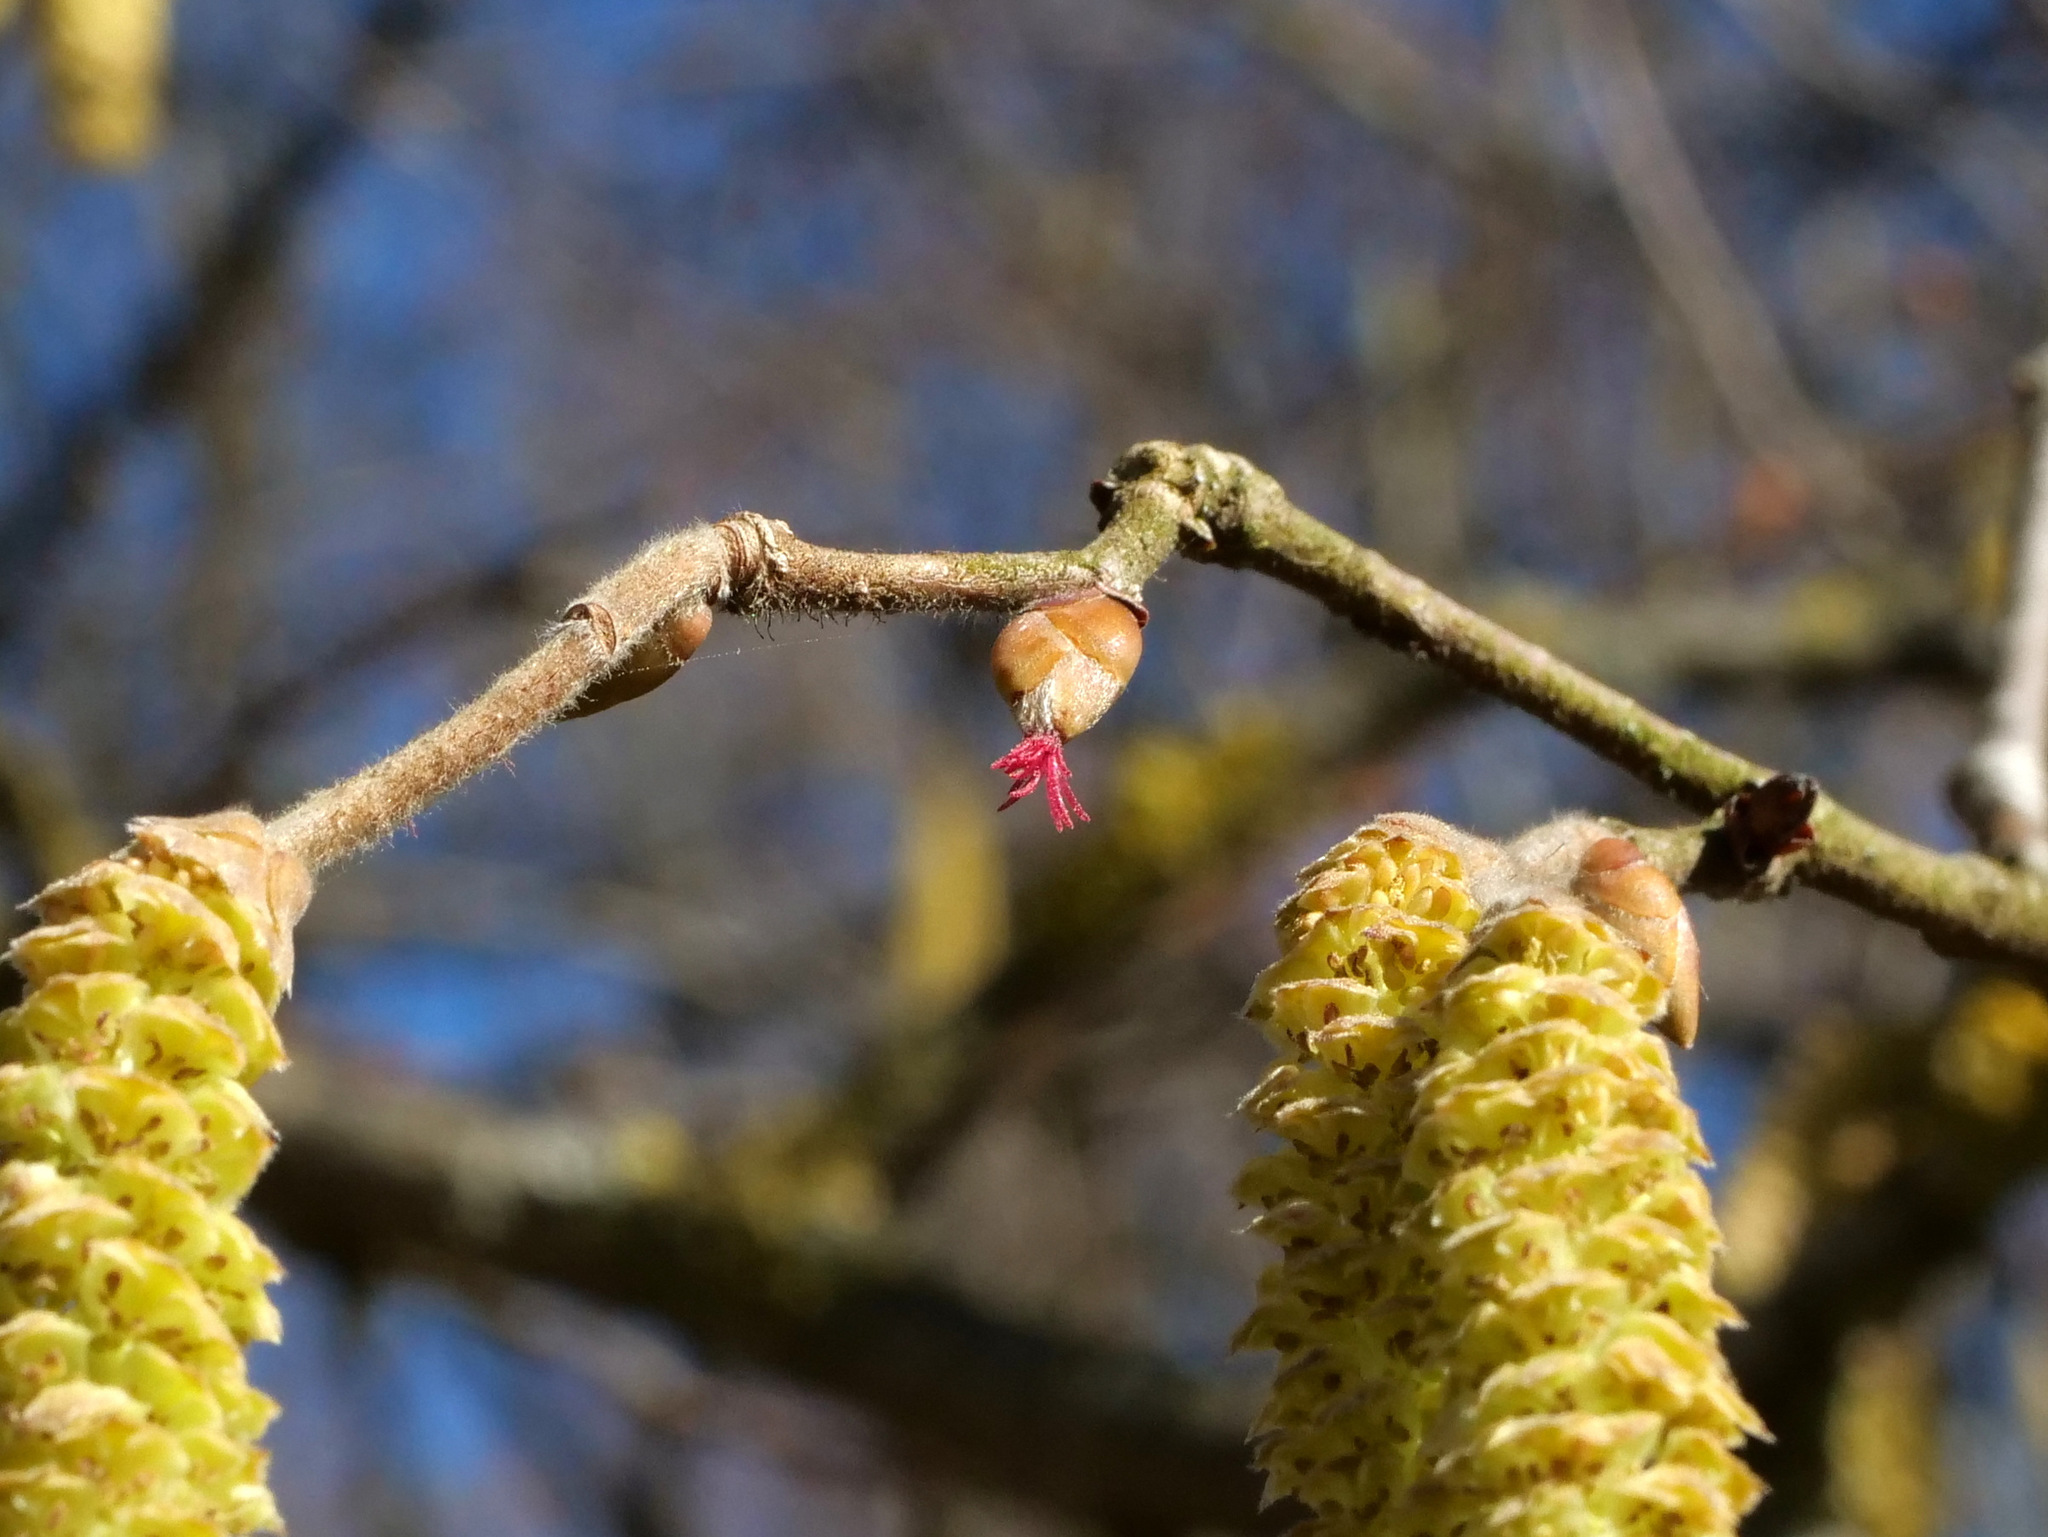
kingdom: Plantae
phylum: Tracheophyta
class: Magnoliopsida
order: Fagales
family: Betulaceae
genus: Corylus
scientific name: Corylus avellana
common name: European hazel
